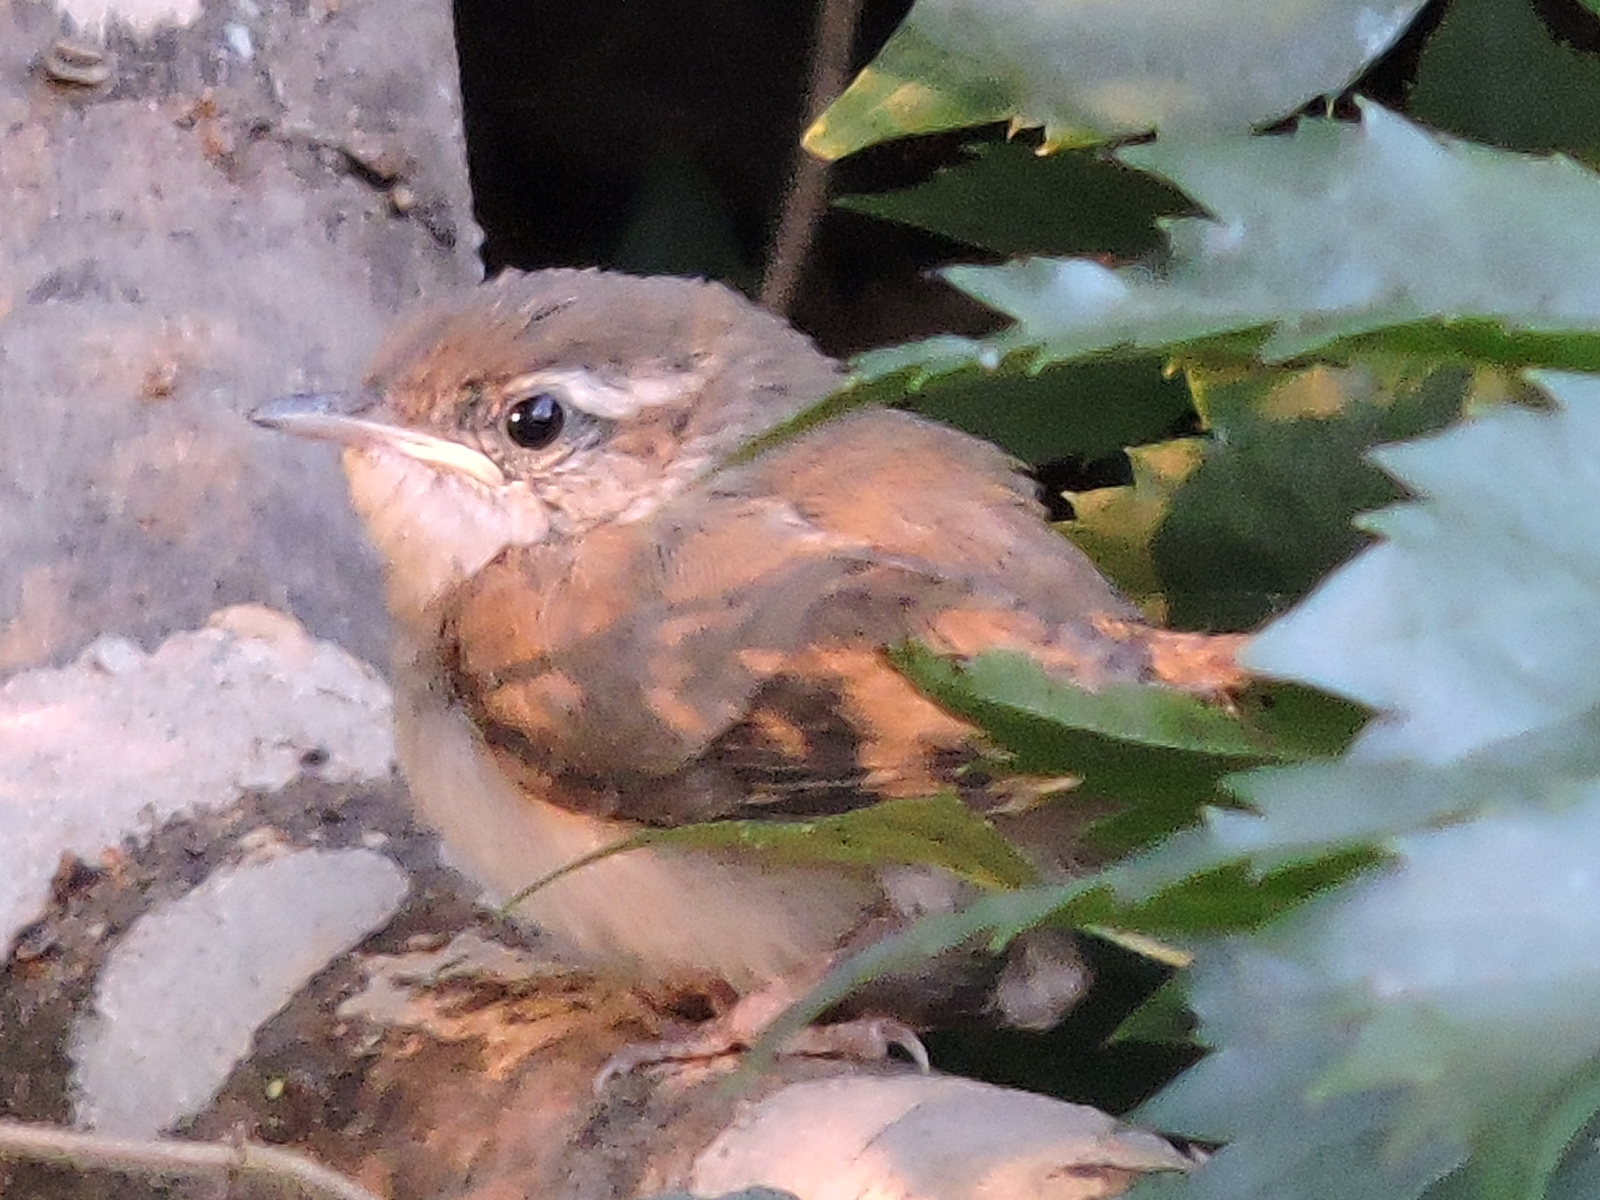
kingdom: Animalia
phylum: Chordata
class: Aves
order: Passeriformes
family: Troglodytidae
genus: Thryomanes
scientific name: Thryomanes bewickii
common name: Bewick's wren
